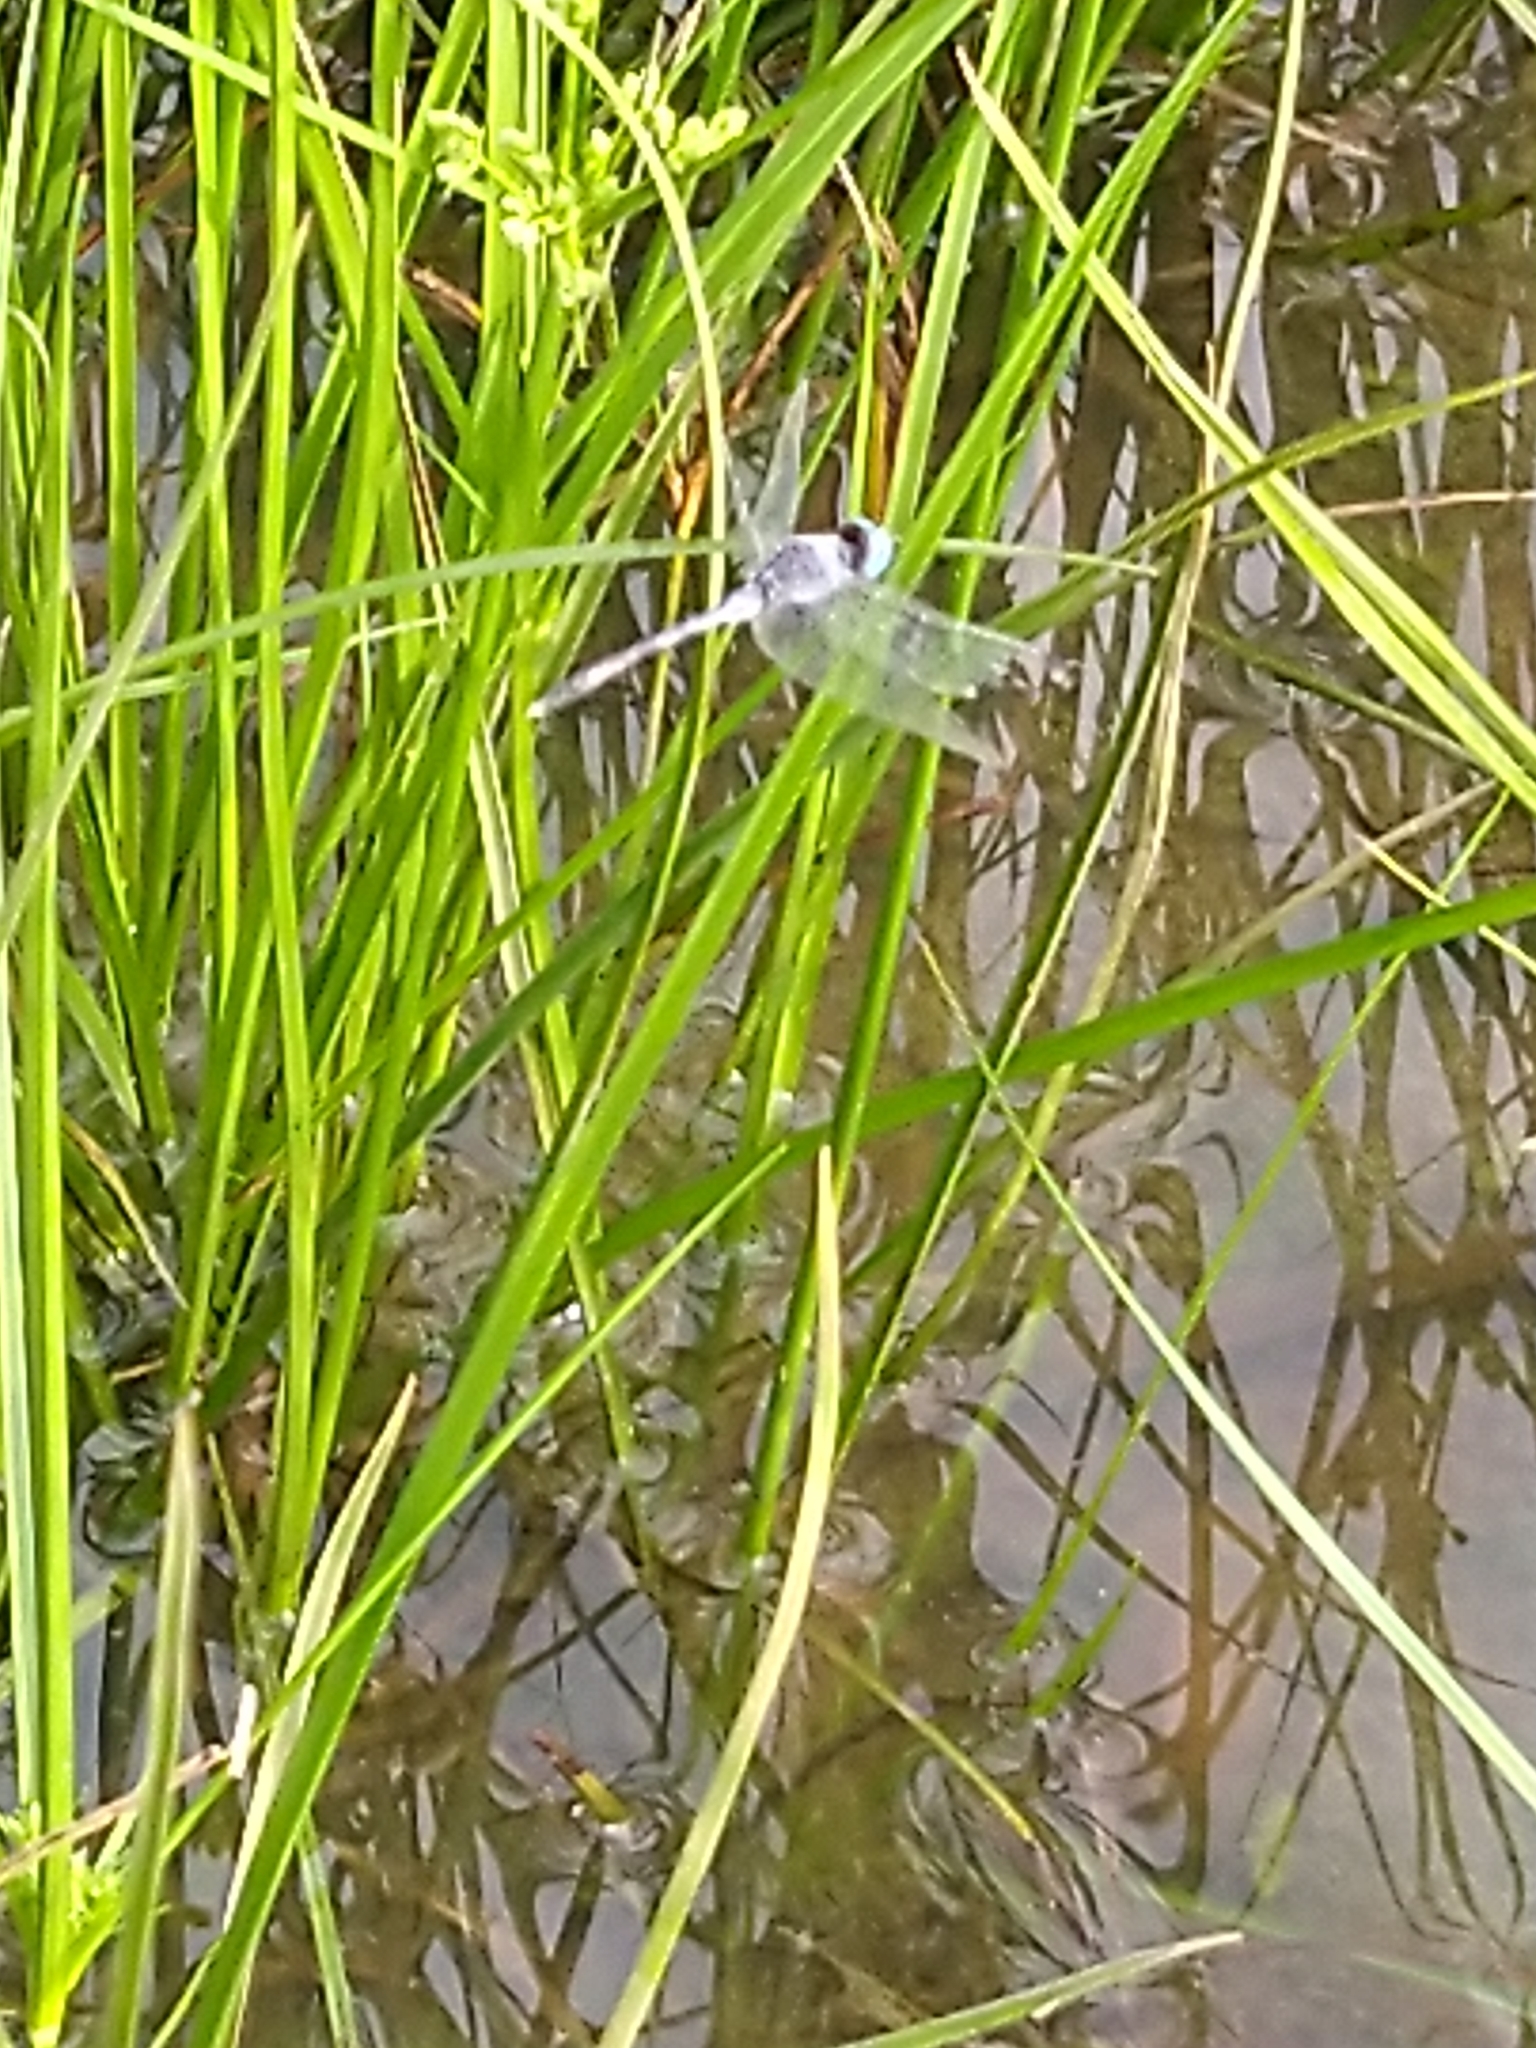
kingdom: Animalia
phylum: Arthropoda
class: Insecta
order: Odonata
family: Libellulidae
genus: Diplacodes
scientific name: Diplacodes trivialis
